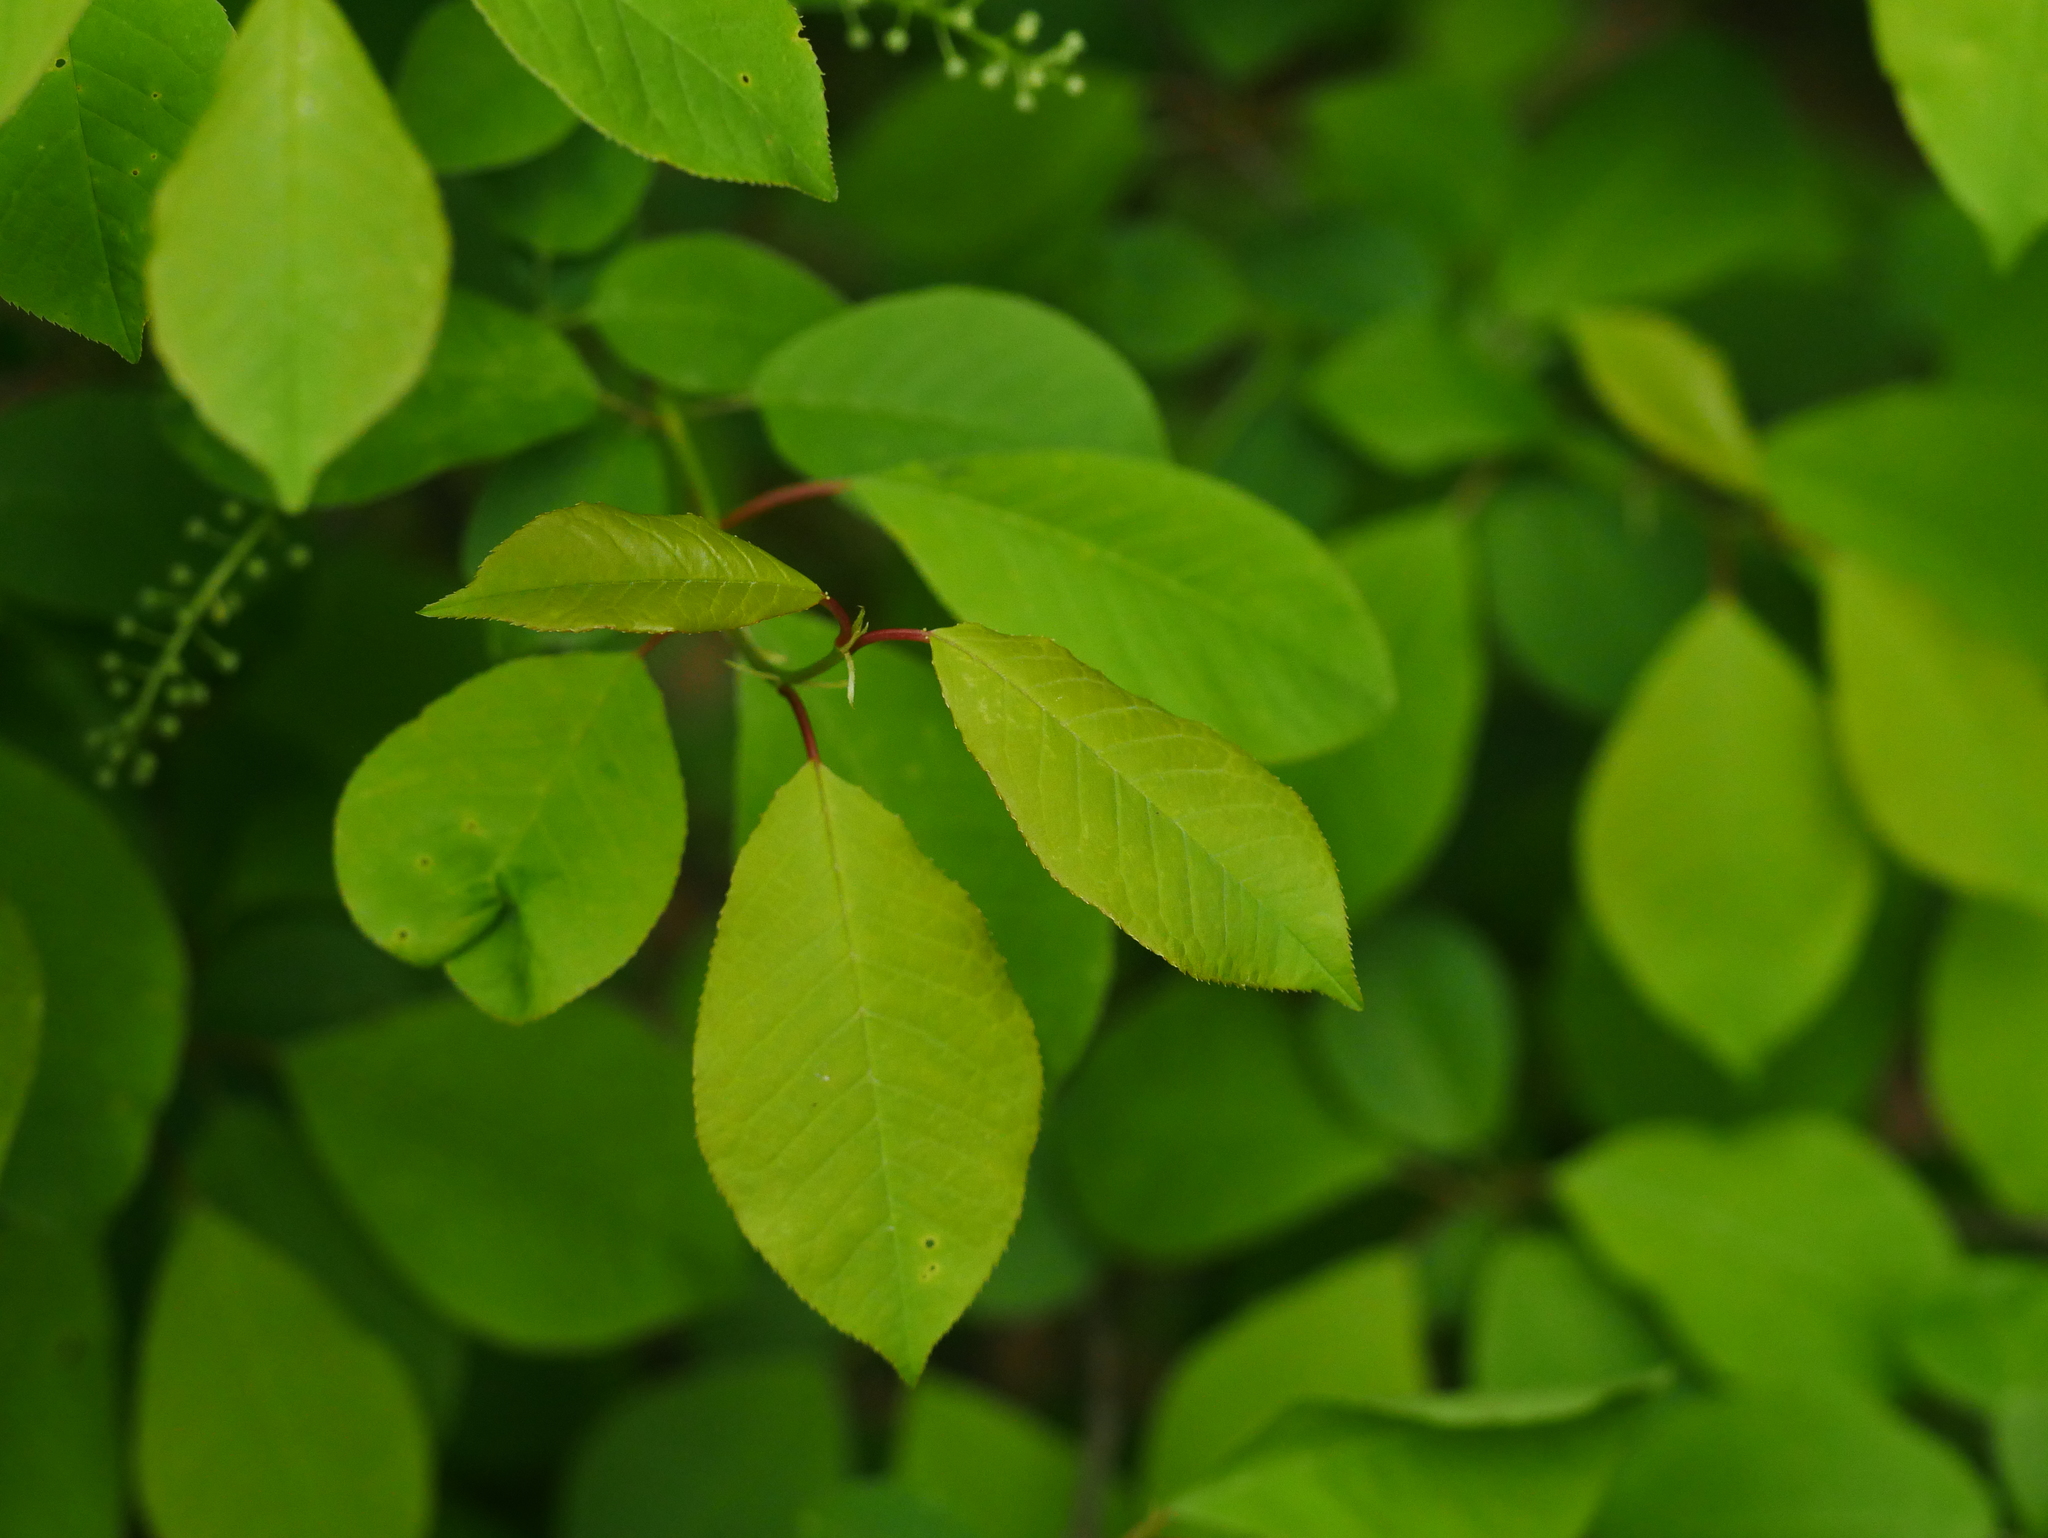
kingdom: Plantae
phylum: Tracheophyta
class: Magnoliopsida
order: Rosales
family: Rosaceae
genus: Prunus
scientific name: Prunus padus
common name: Bird cherry
